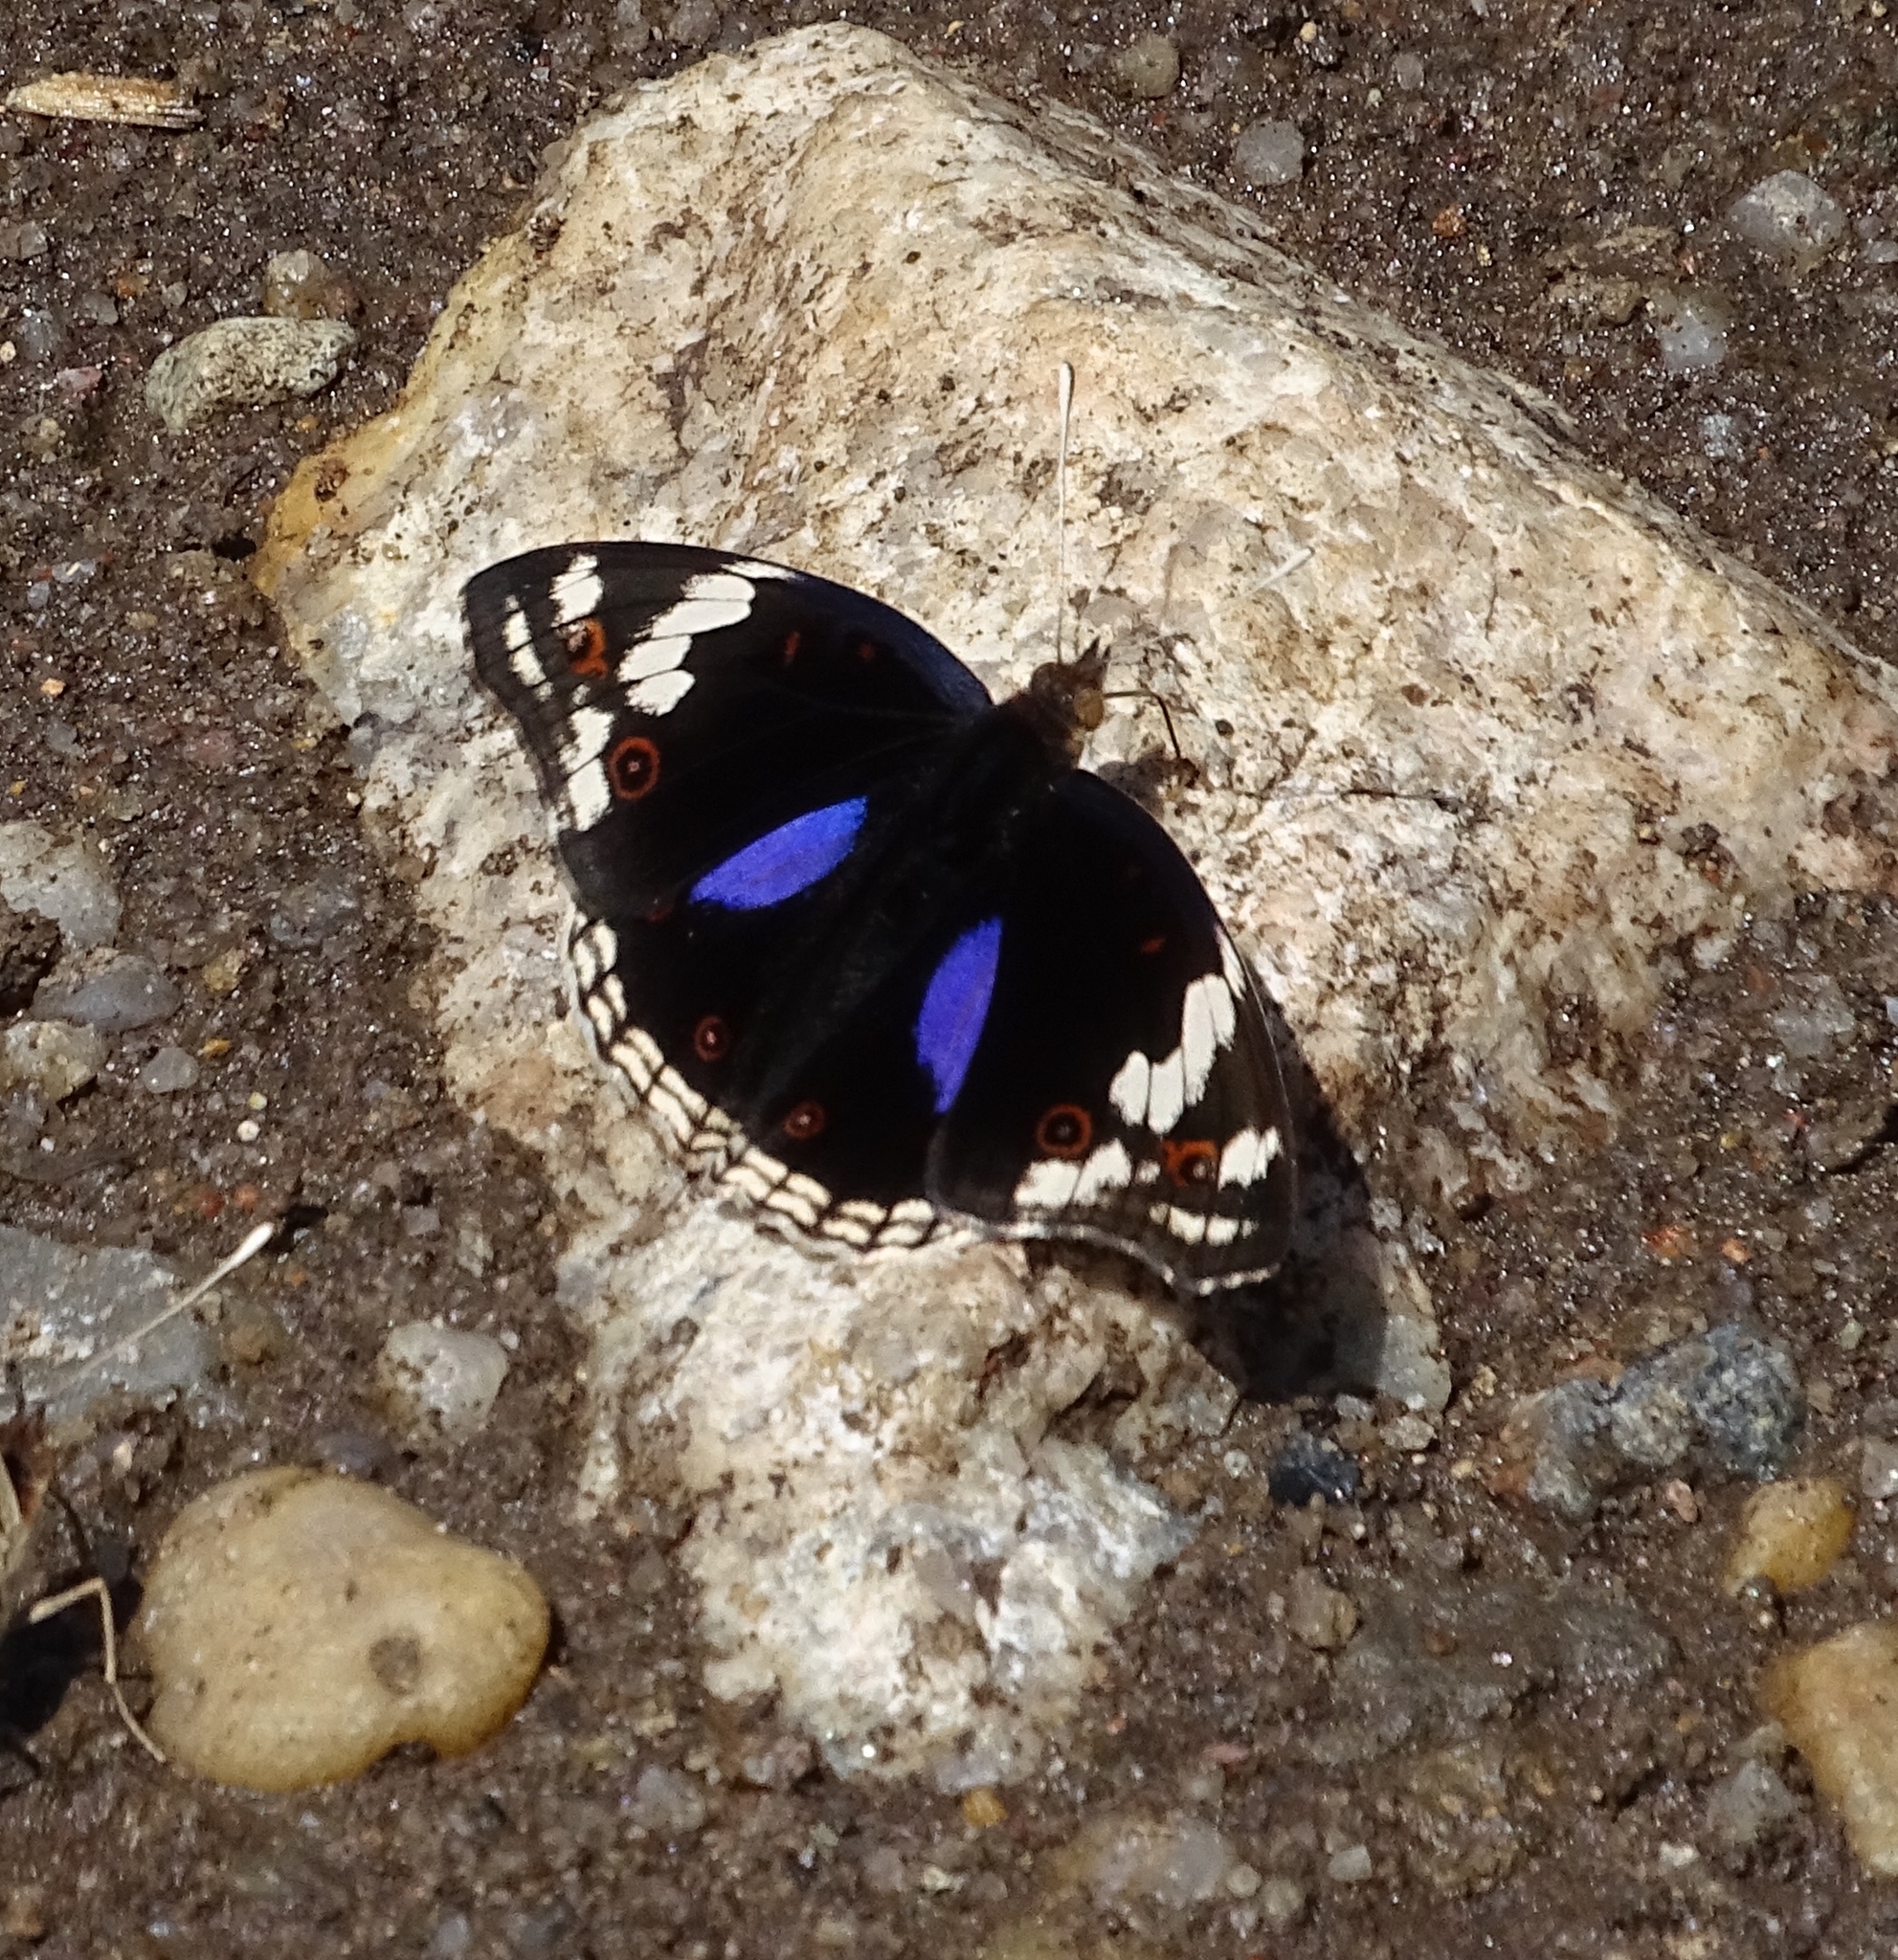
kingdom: Animalia
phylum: Arthropoda
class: Insecta
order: Lepidoptera
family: Nymphalidae
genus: Junonia
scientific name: Junonia oenone
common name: Dark blue pansy
